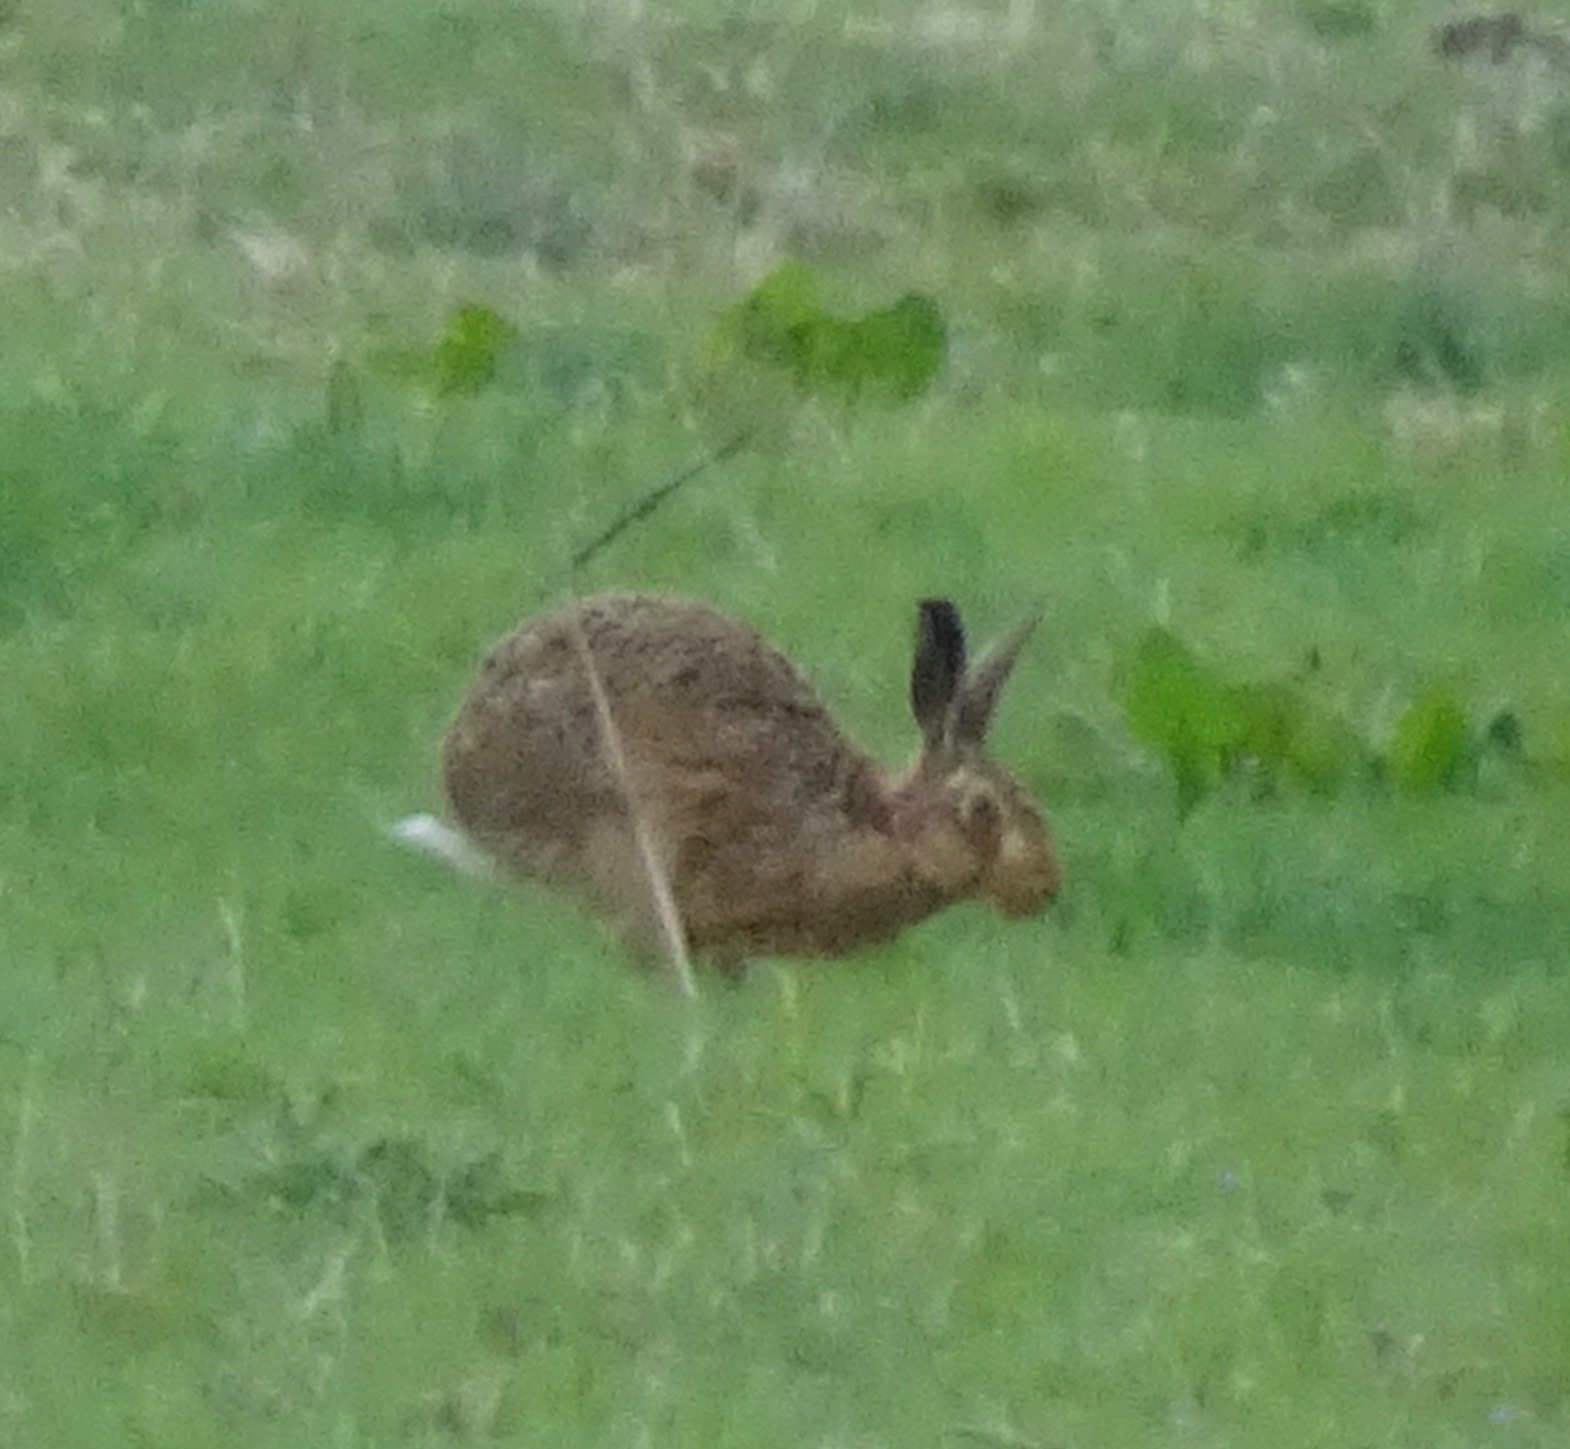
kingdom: Animalia
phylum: Chordata
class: Mammalia
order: Lagomorpha
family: Leporidae
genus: Lepus
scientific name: Lepus europaeus
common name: European hare
